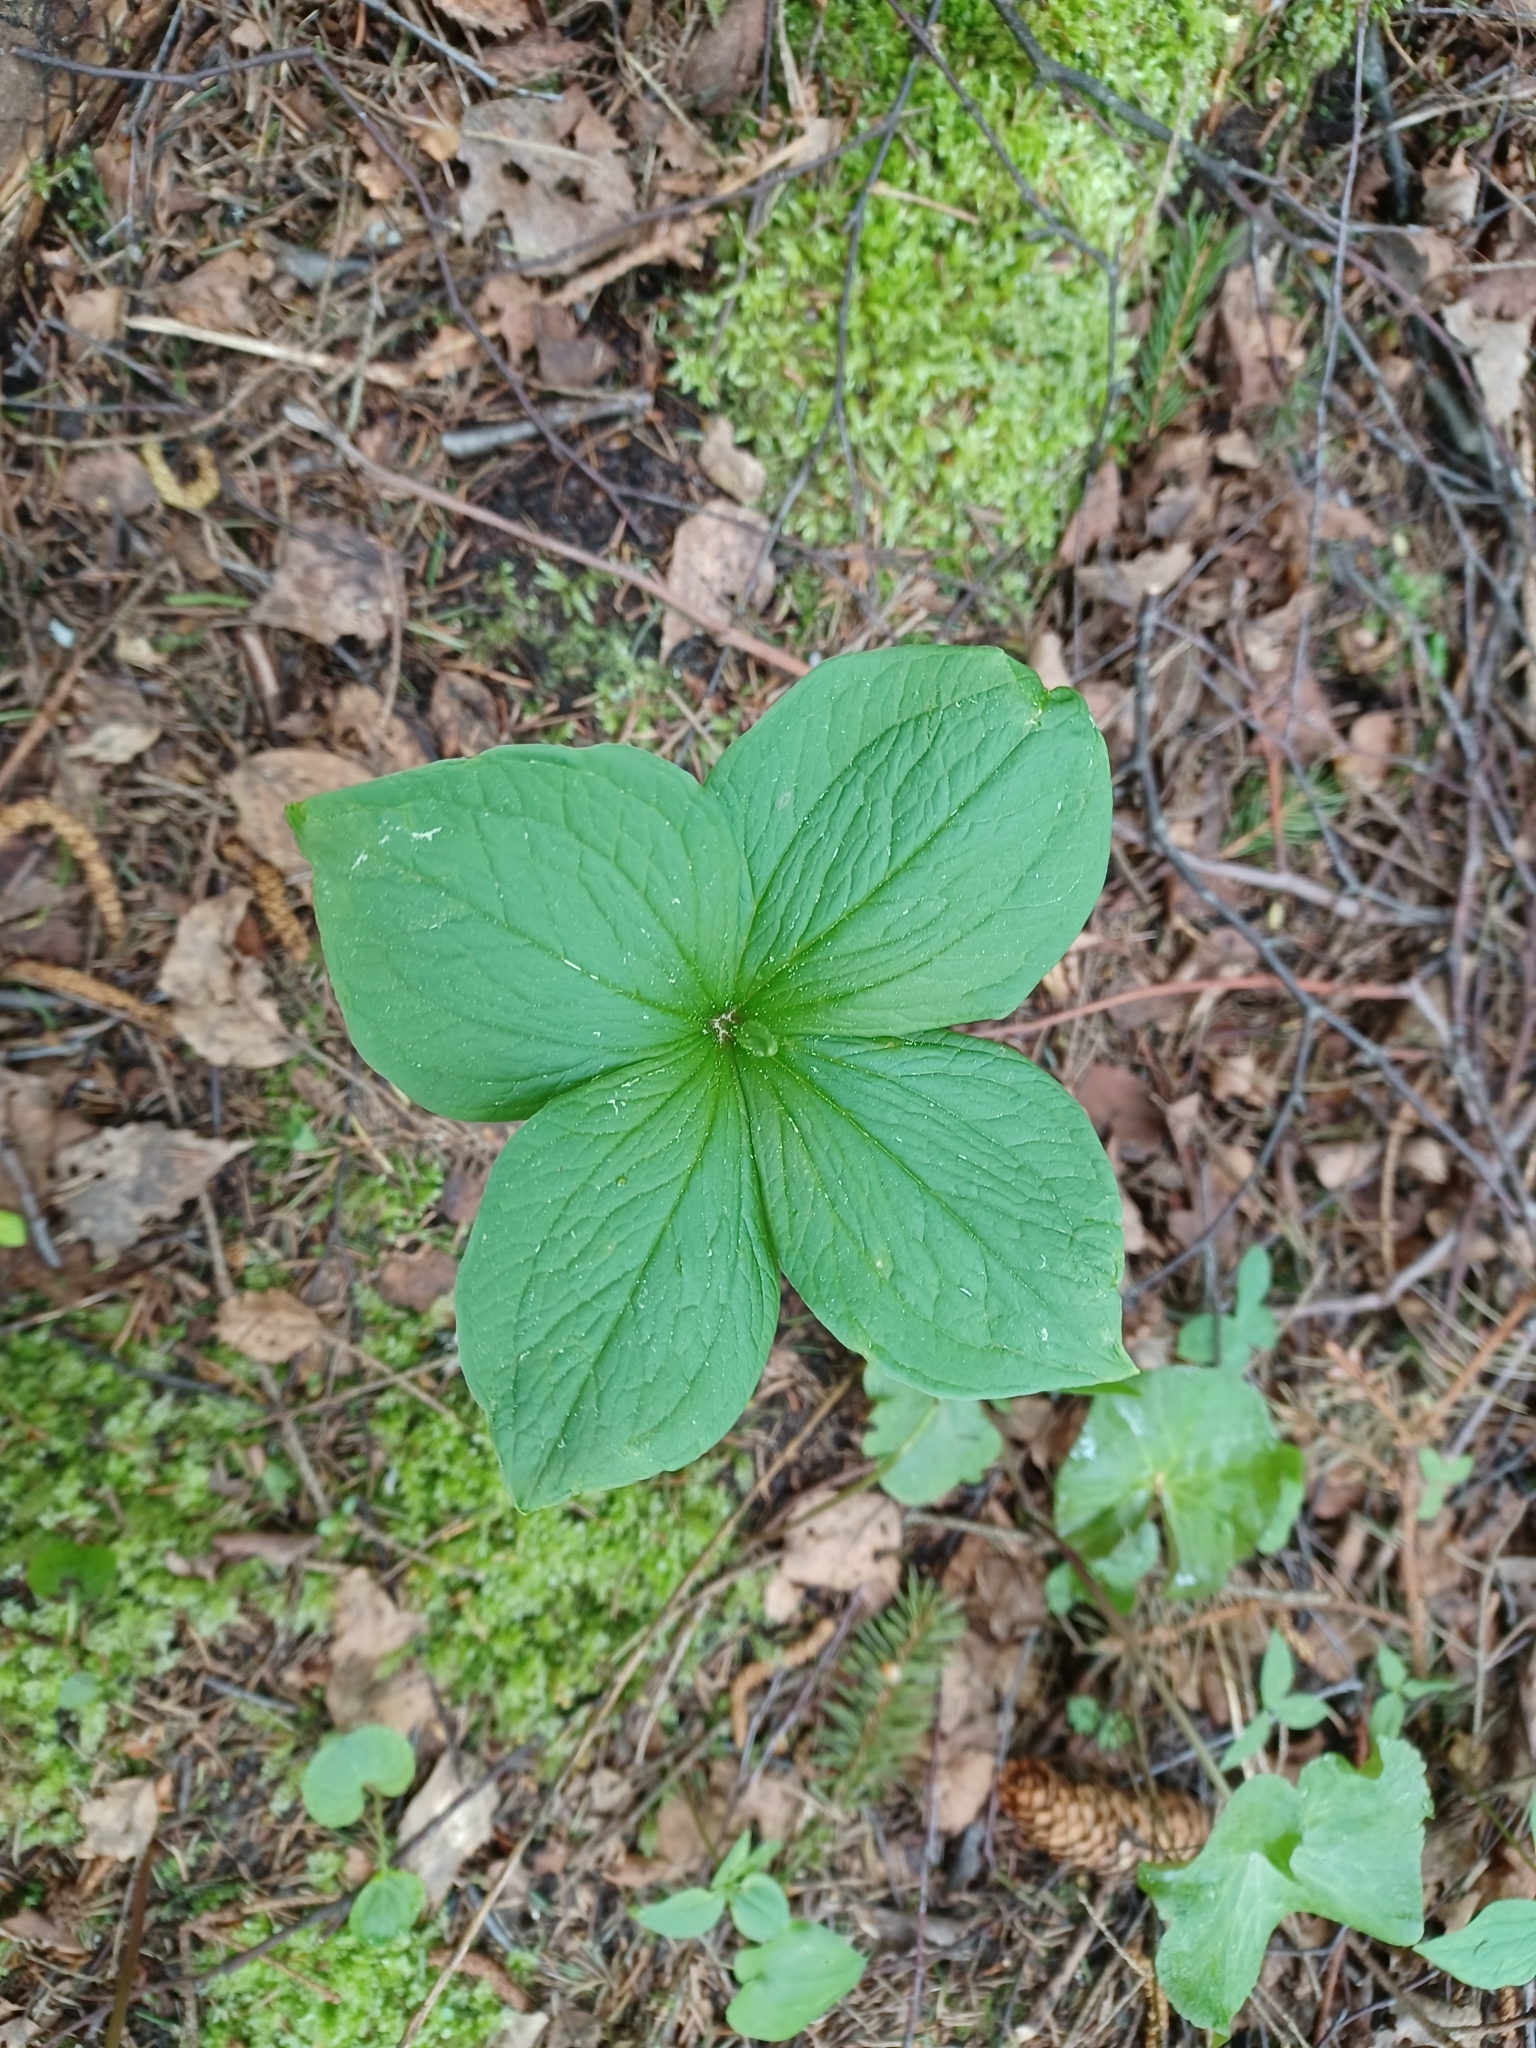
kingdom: Plantae
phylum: Tracheophyta
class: Liliopsida
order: Liliales
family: Melanthiaceae
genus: Paris
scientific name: Paris quadrifolia
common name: Herb-paris
